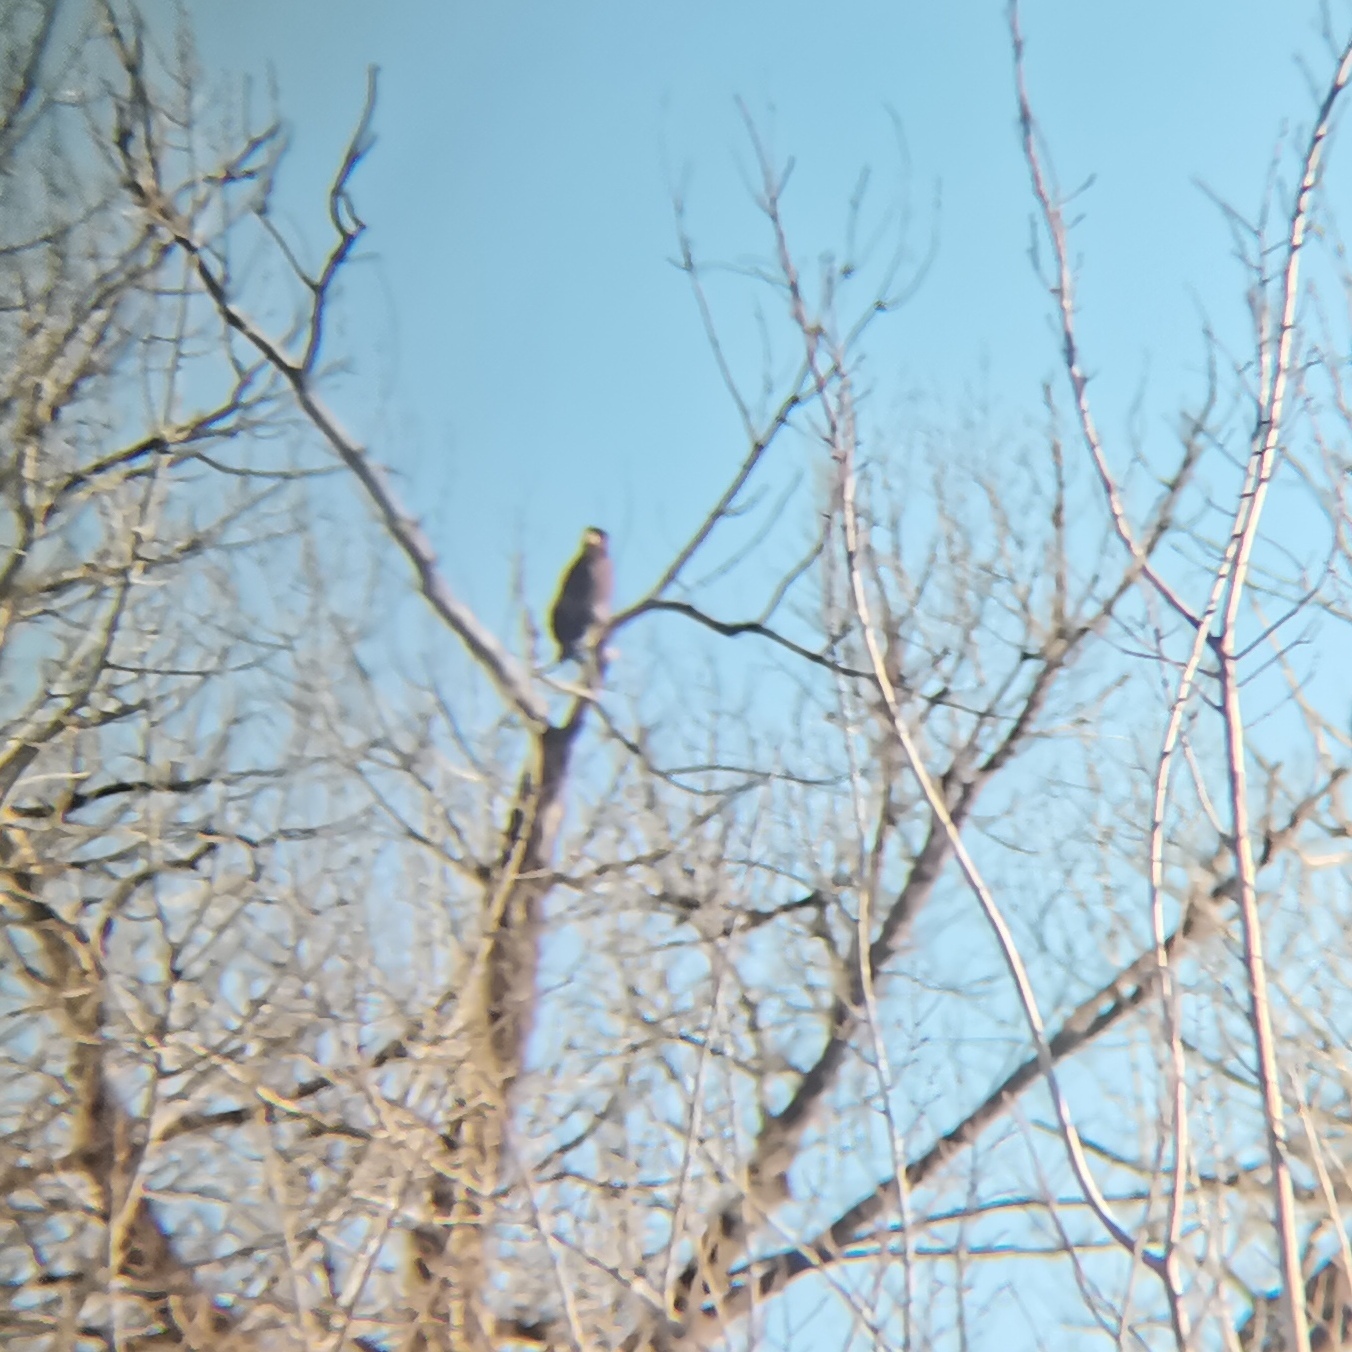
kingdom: Animalia
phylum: Chordata
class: Aves
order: Accipitriformes
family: Accipitridae
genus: Haliaeetus
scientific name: Haliaeetus albicilla
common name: White-tailed eagle
